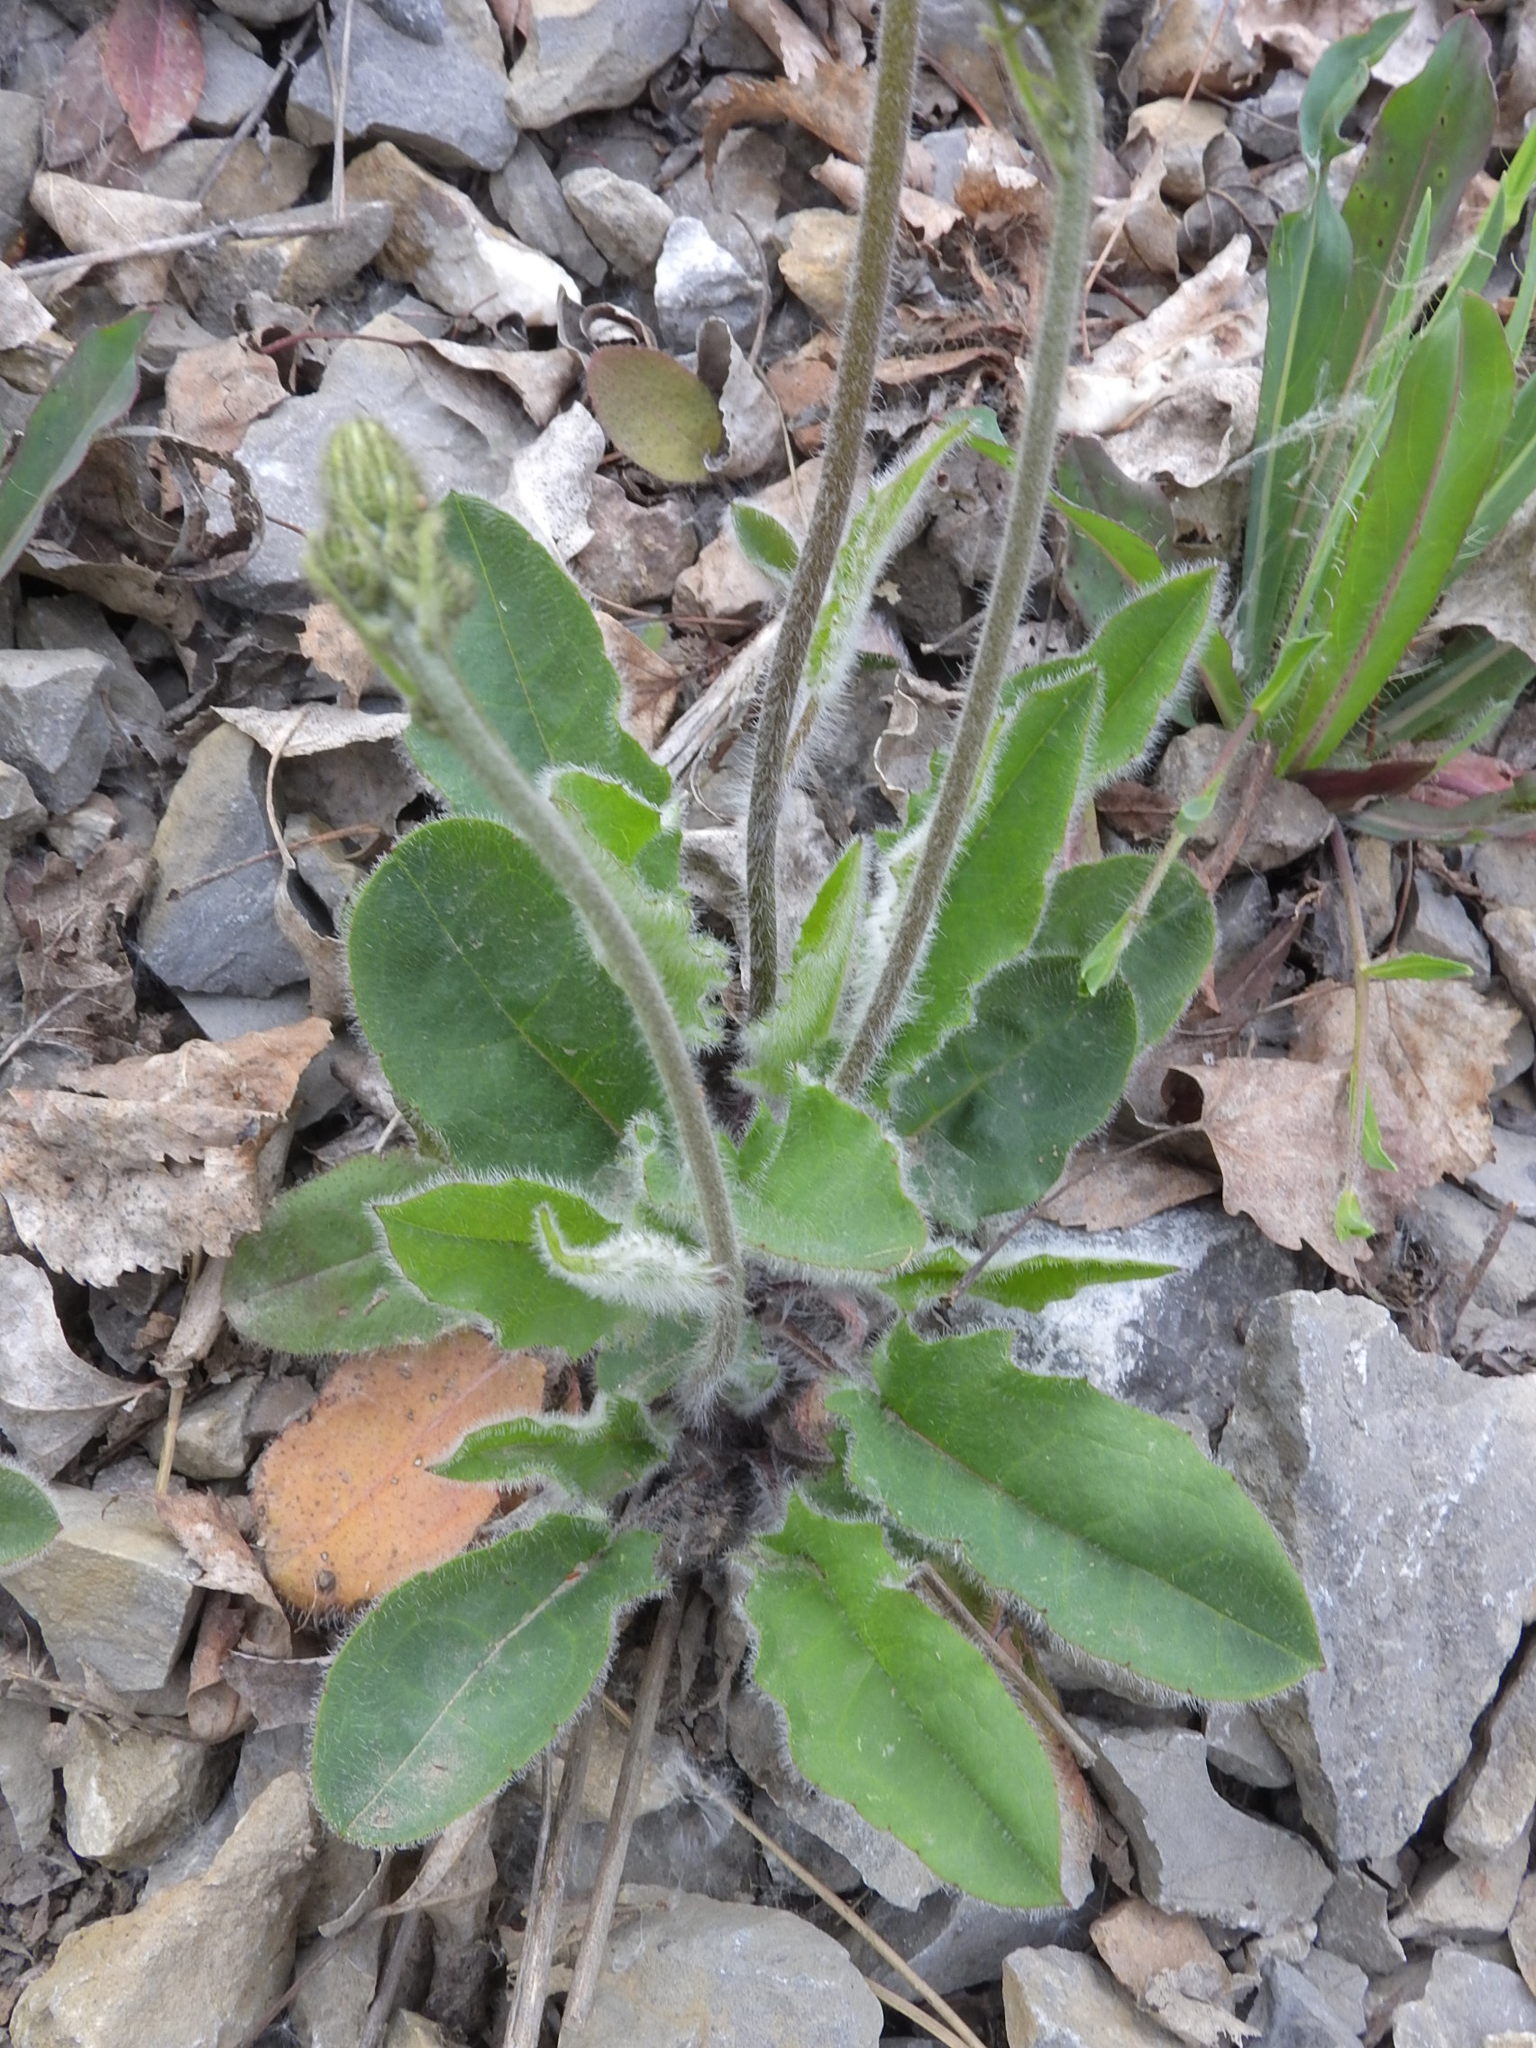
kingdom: Plantae
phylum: Tracheophyta
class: Magnoliopsida
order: Asterales
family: Asteraceae
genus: Hieracium
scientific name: Hieracium murorum
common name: Wall hawkweed
